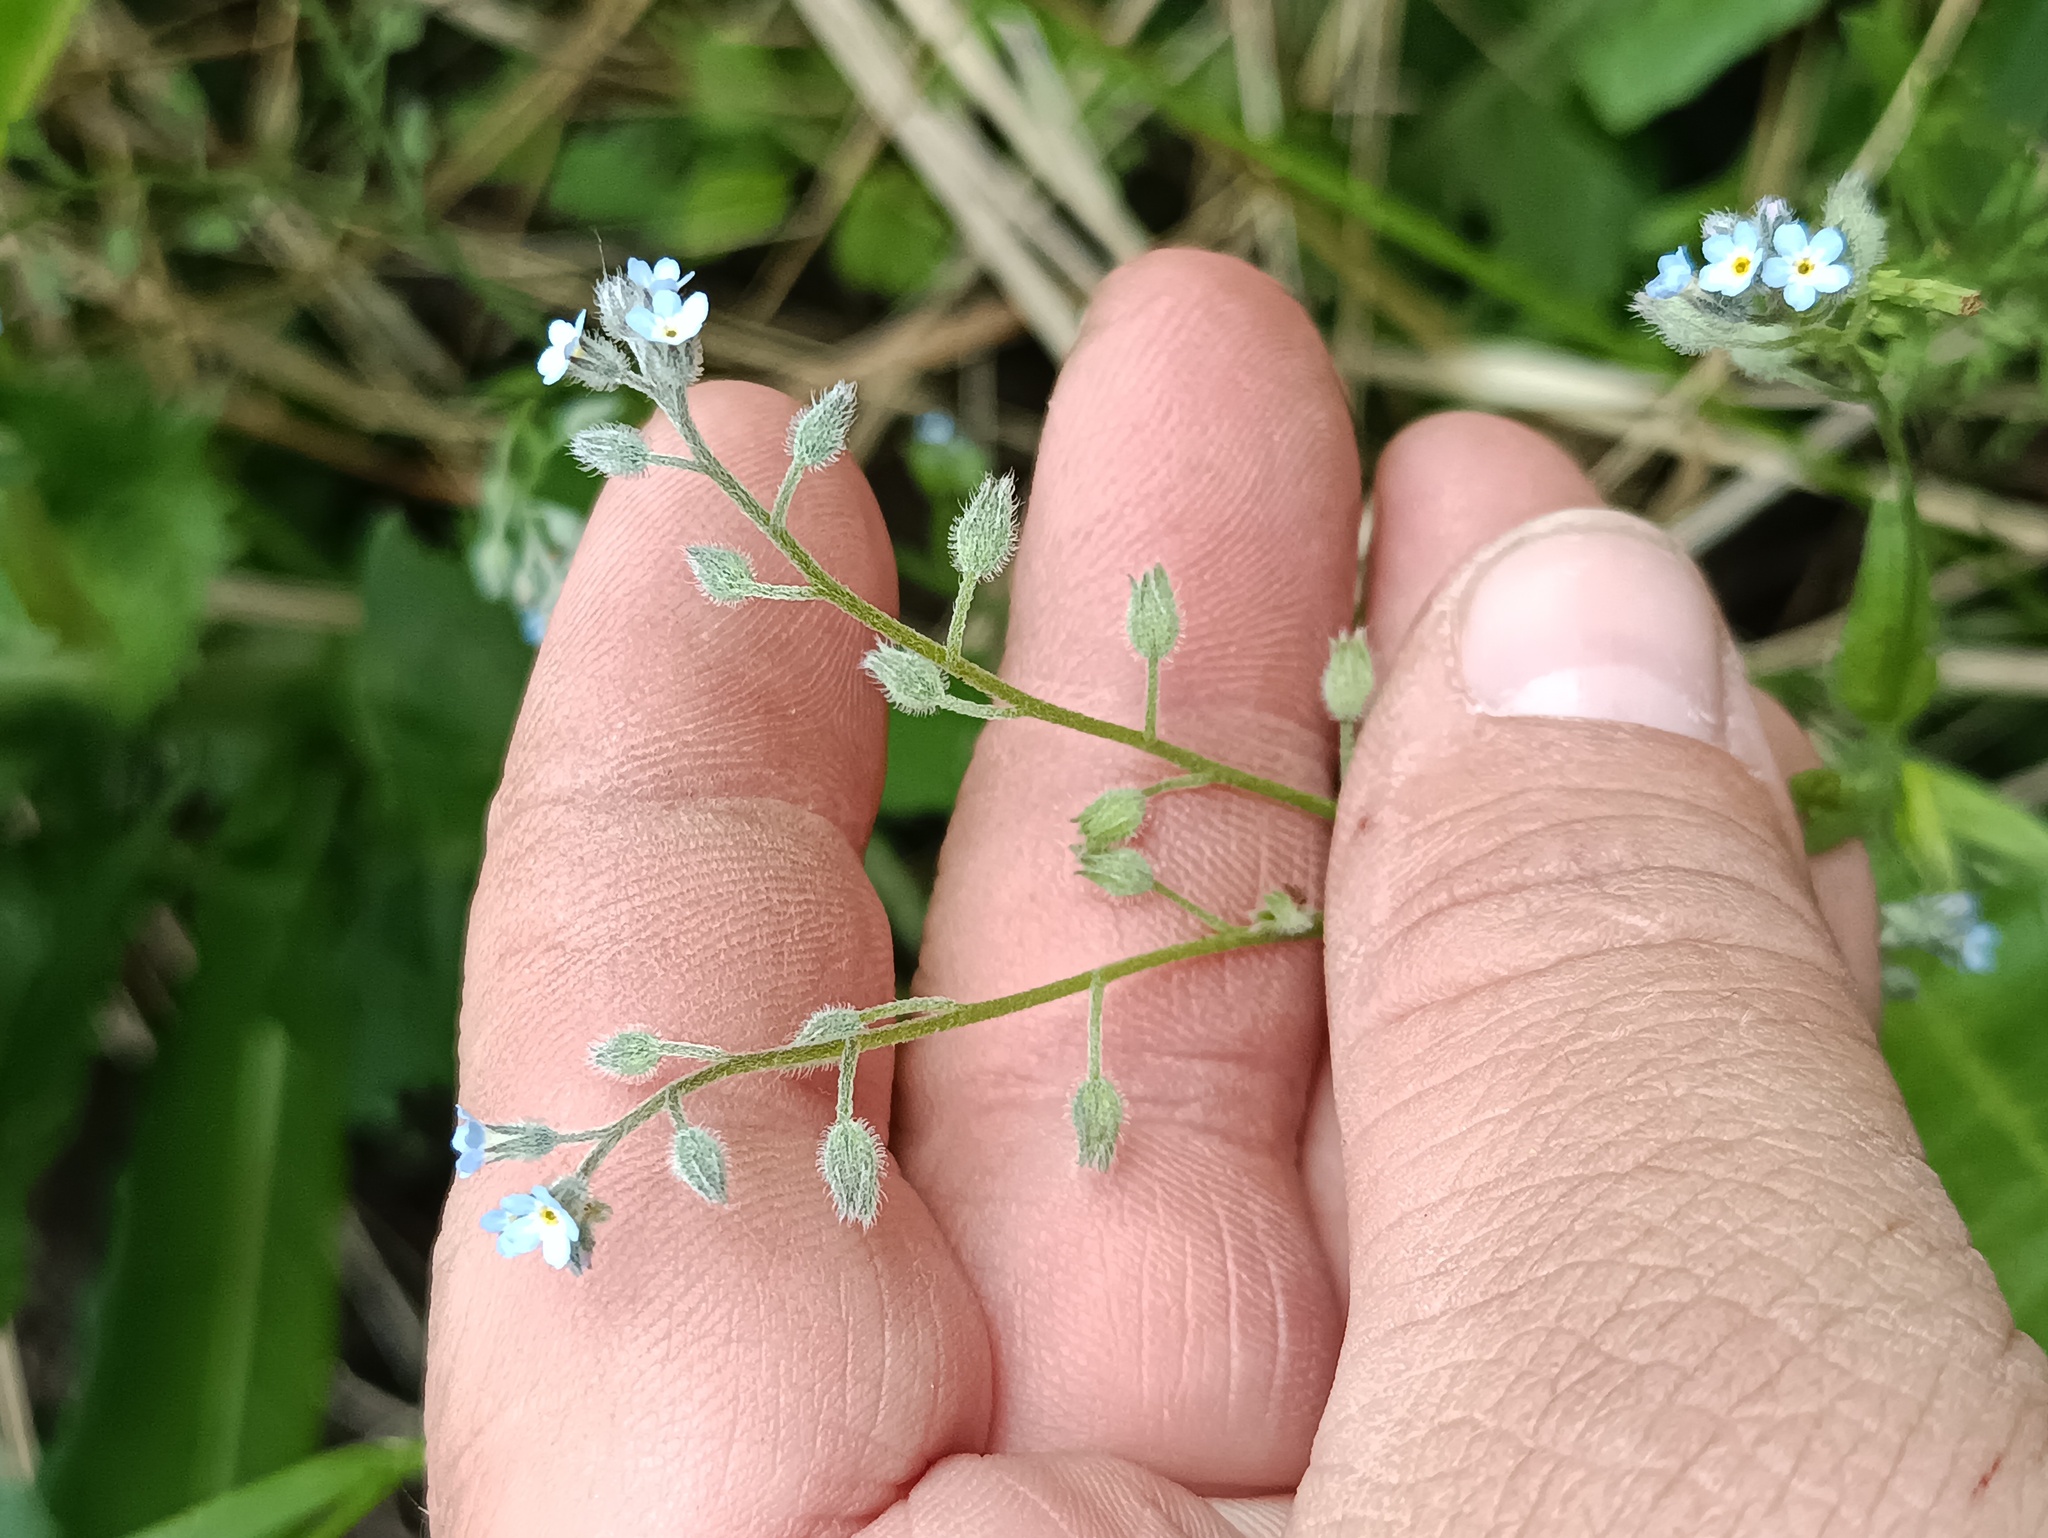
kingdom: Plantae
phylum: Tracheophyta
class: Magnoliopsida
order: Boraginales
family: Boraginaceae
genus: Myosotis
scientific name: Myosotis arvensis
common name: Field forget-me-not
